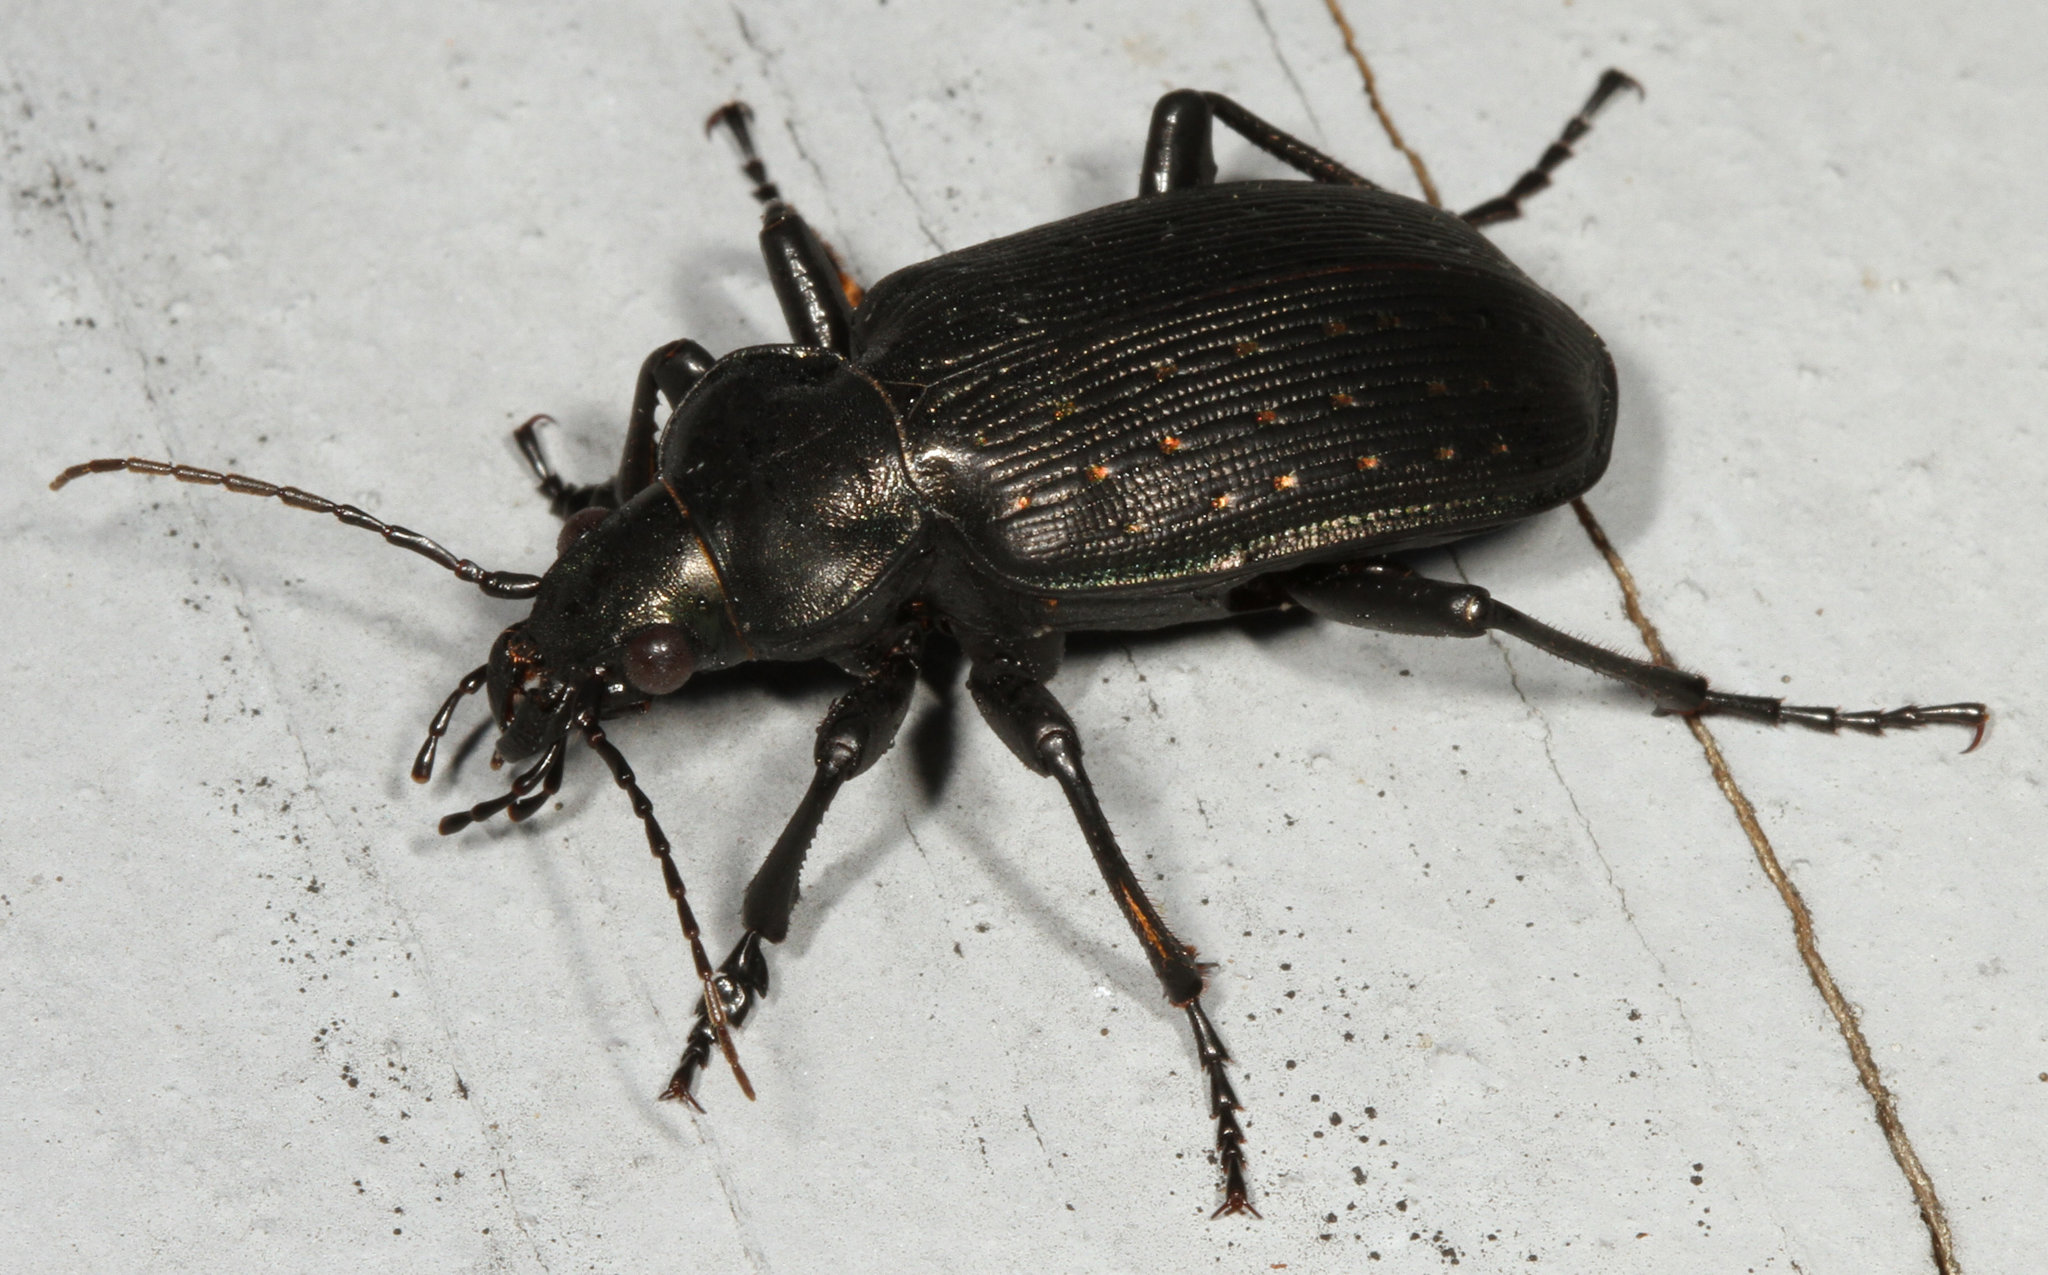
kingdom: Animalia
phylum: Arthropoda
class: Insecta
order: Coleoptera
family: Carabidae
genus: Calosoma
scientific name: Calosoma sayi
